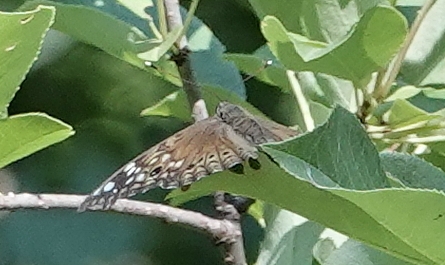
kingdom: Animalia
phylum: Arthropoda
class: Insecta
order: Lepidoptera
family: Nymphalidae
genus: Asterocampa
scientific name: Asterocampa celtis
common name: Hackberry emperor
